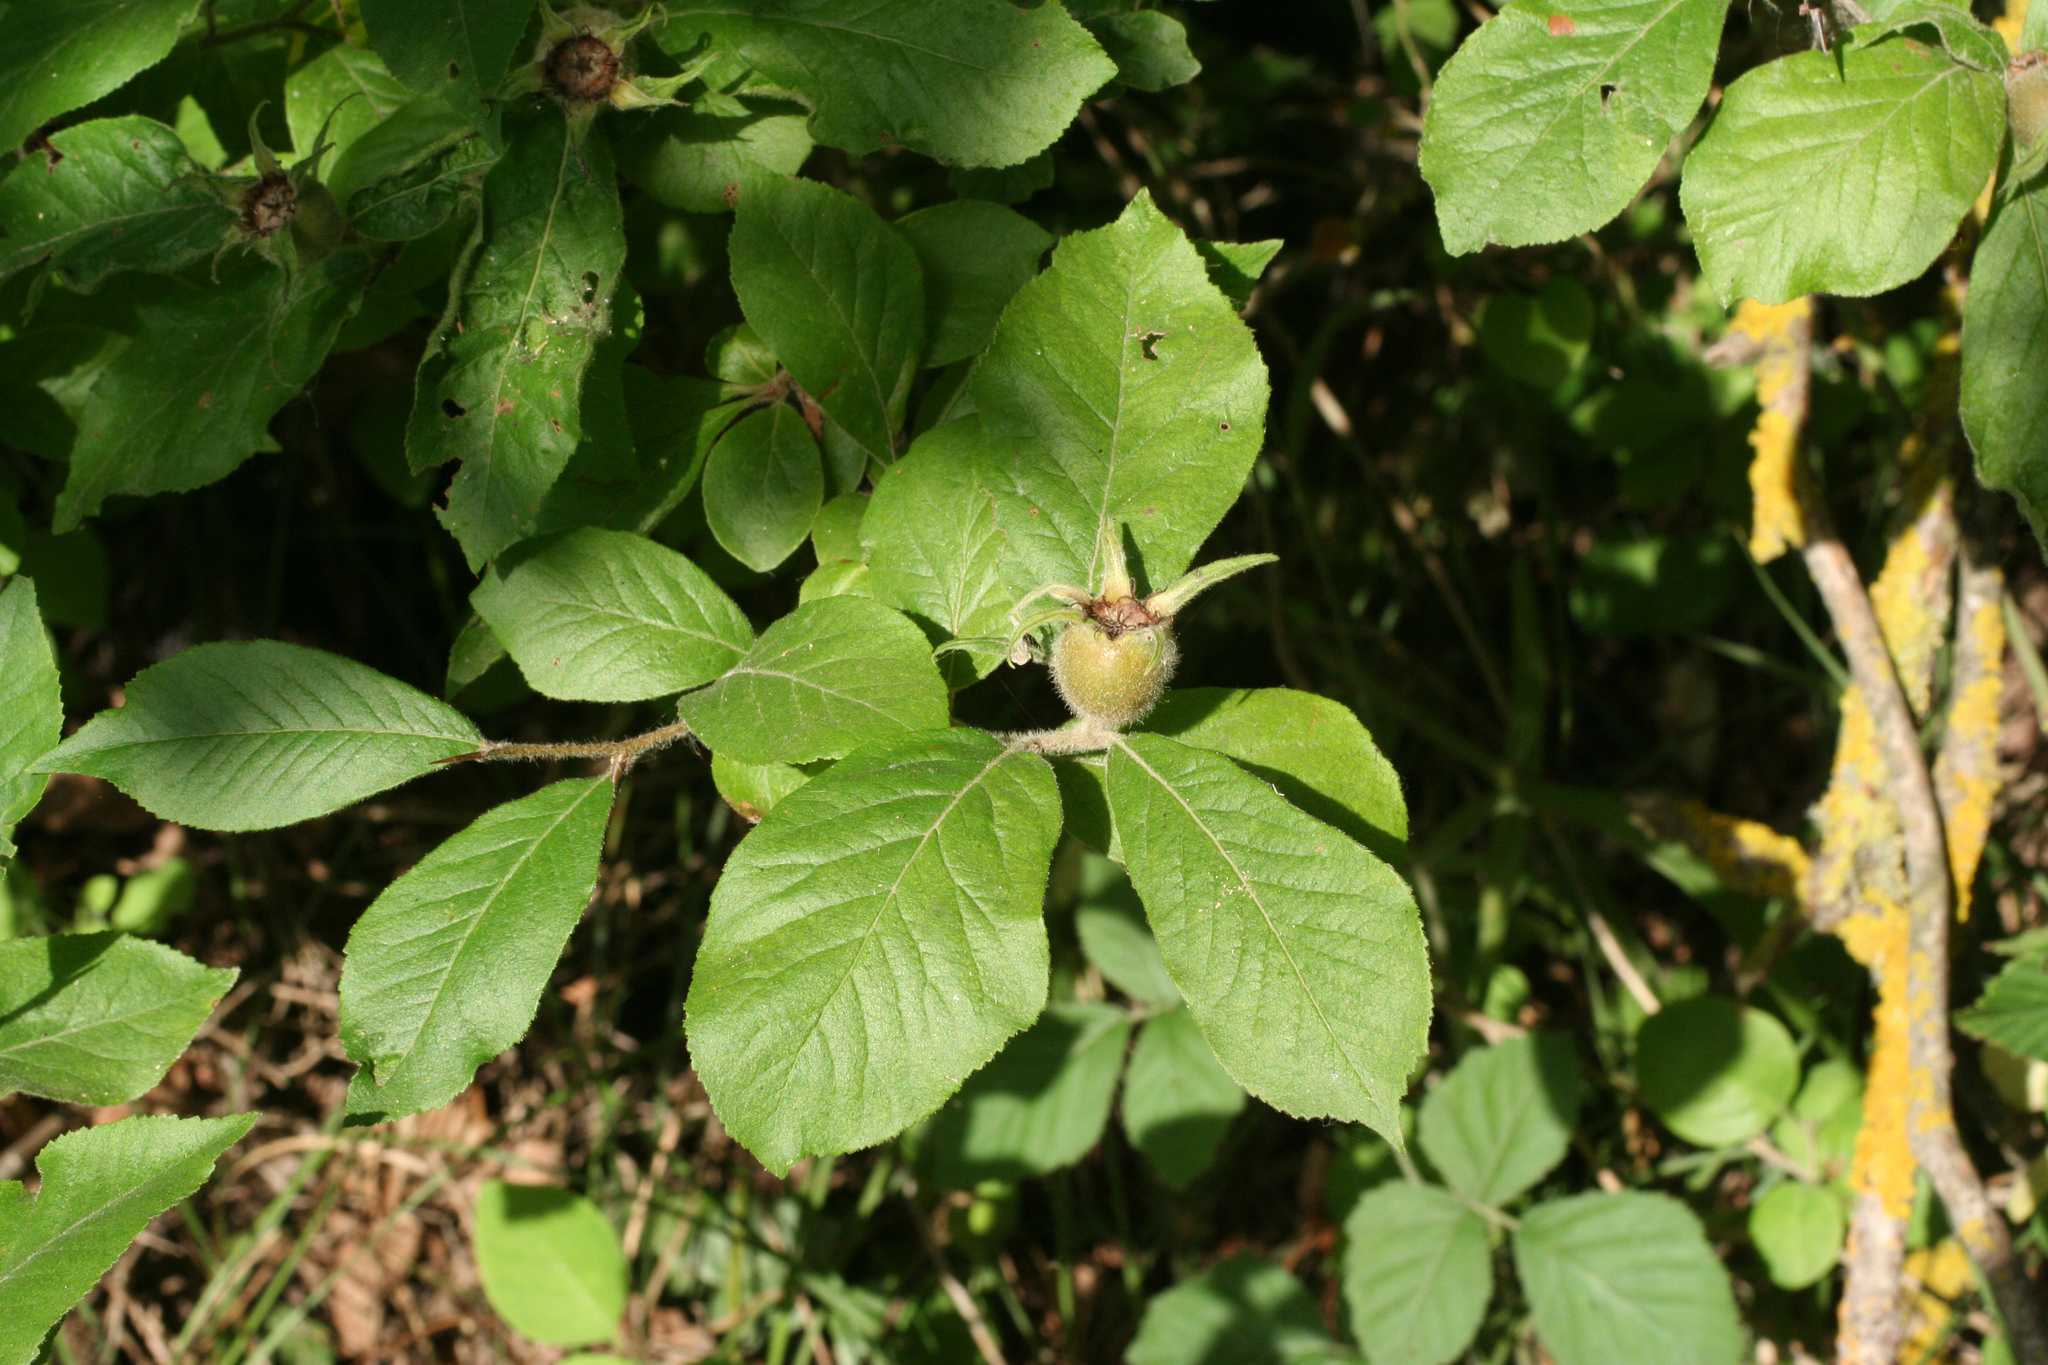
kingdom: Plantae
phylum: Tracheophyta
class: Magnoliopsida
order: Rosales
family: Rosaceae
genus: Mespilus
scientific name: Mespilus germanica
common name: Medlar
